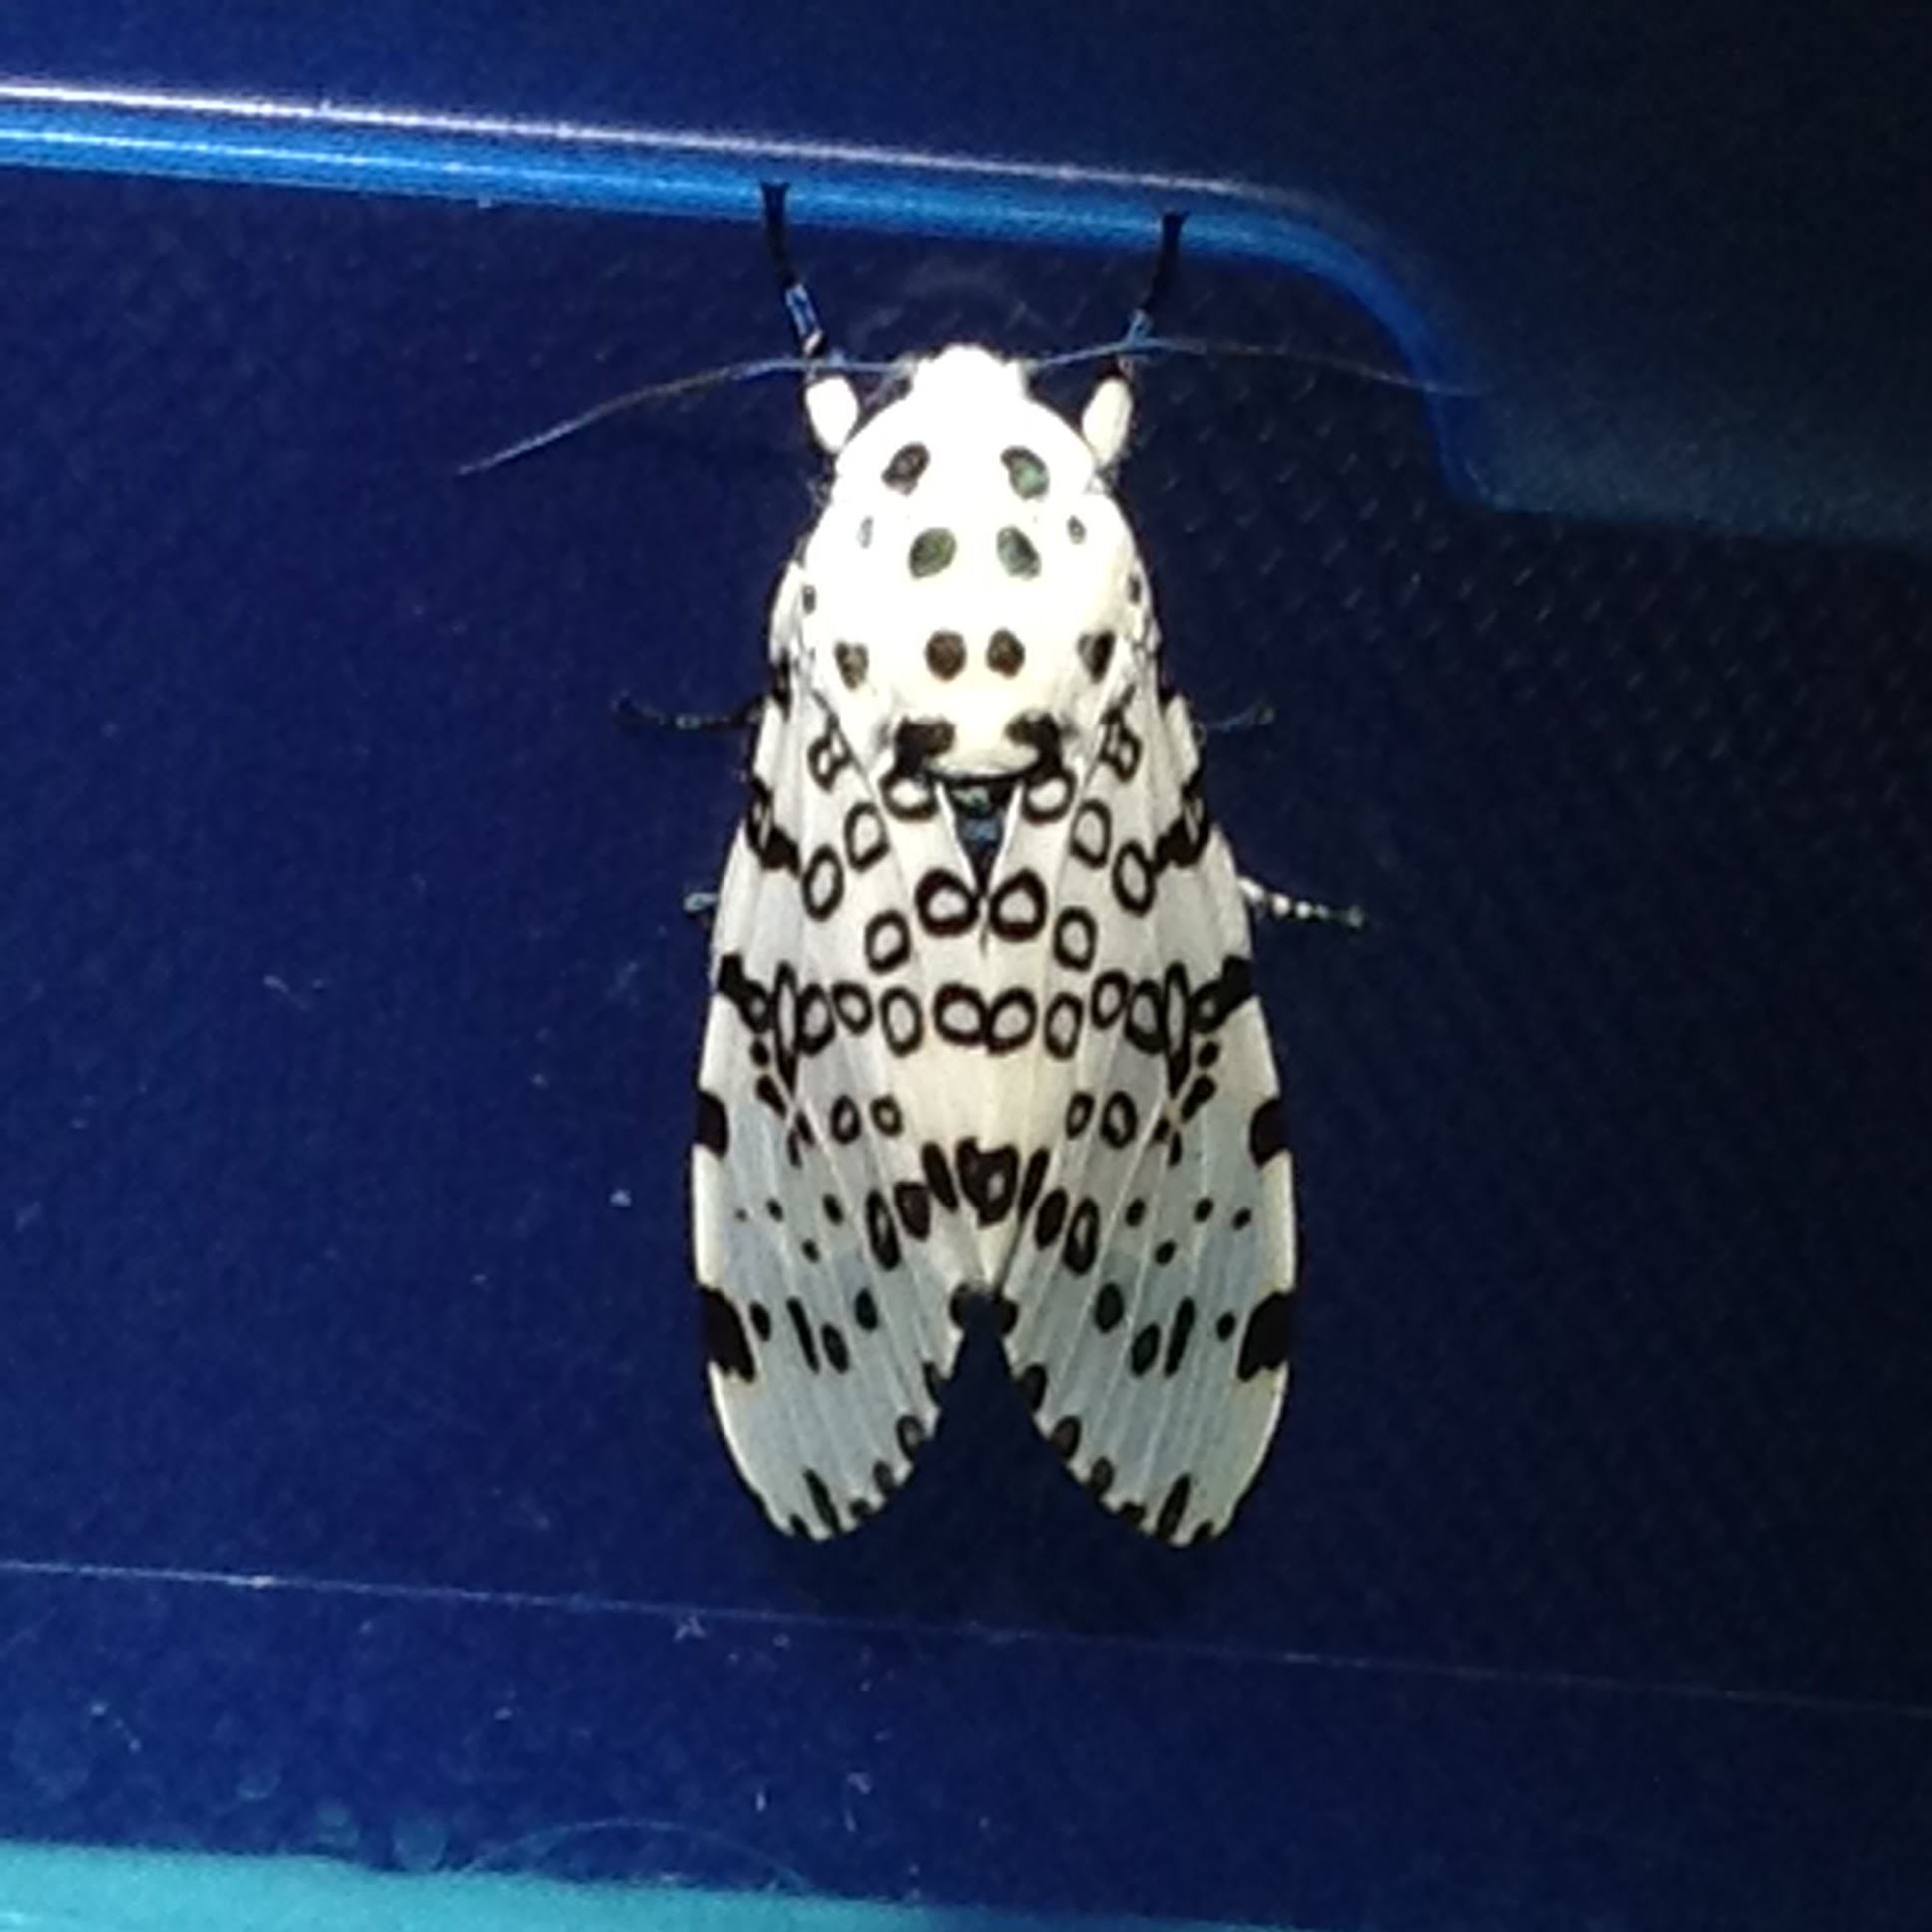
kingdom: Animalia
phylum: Arthropoda
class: Insecta
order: Lepidoptera
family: Erebidae
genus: Hypercompe
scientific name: Hypercompe scribonia
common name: Giant leopard moth
